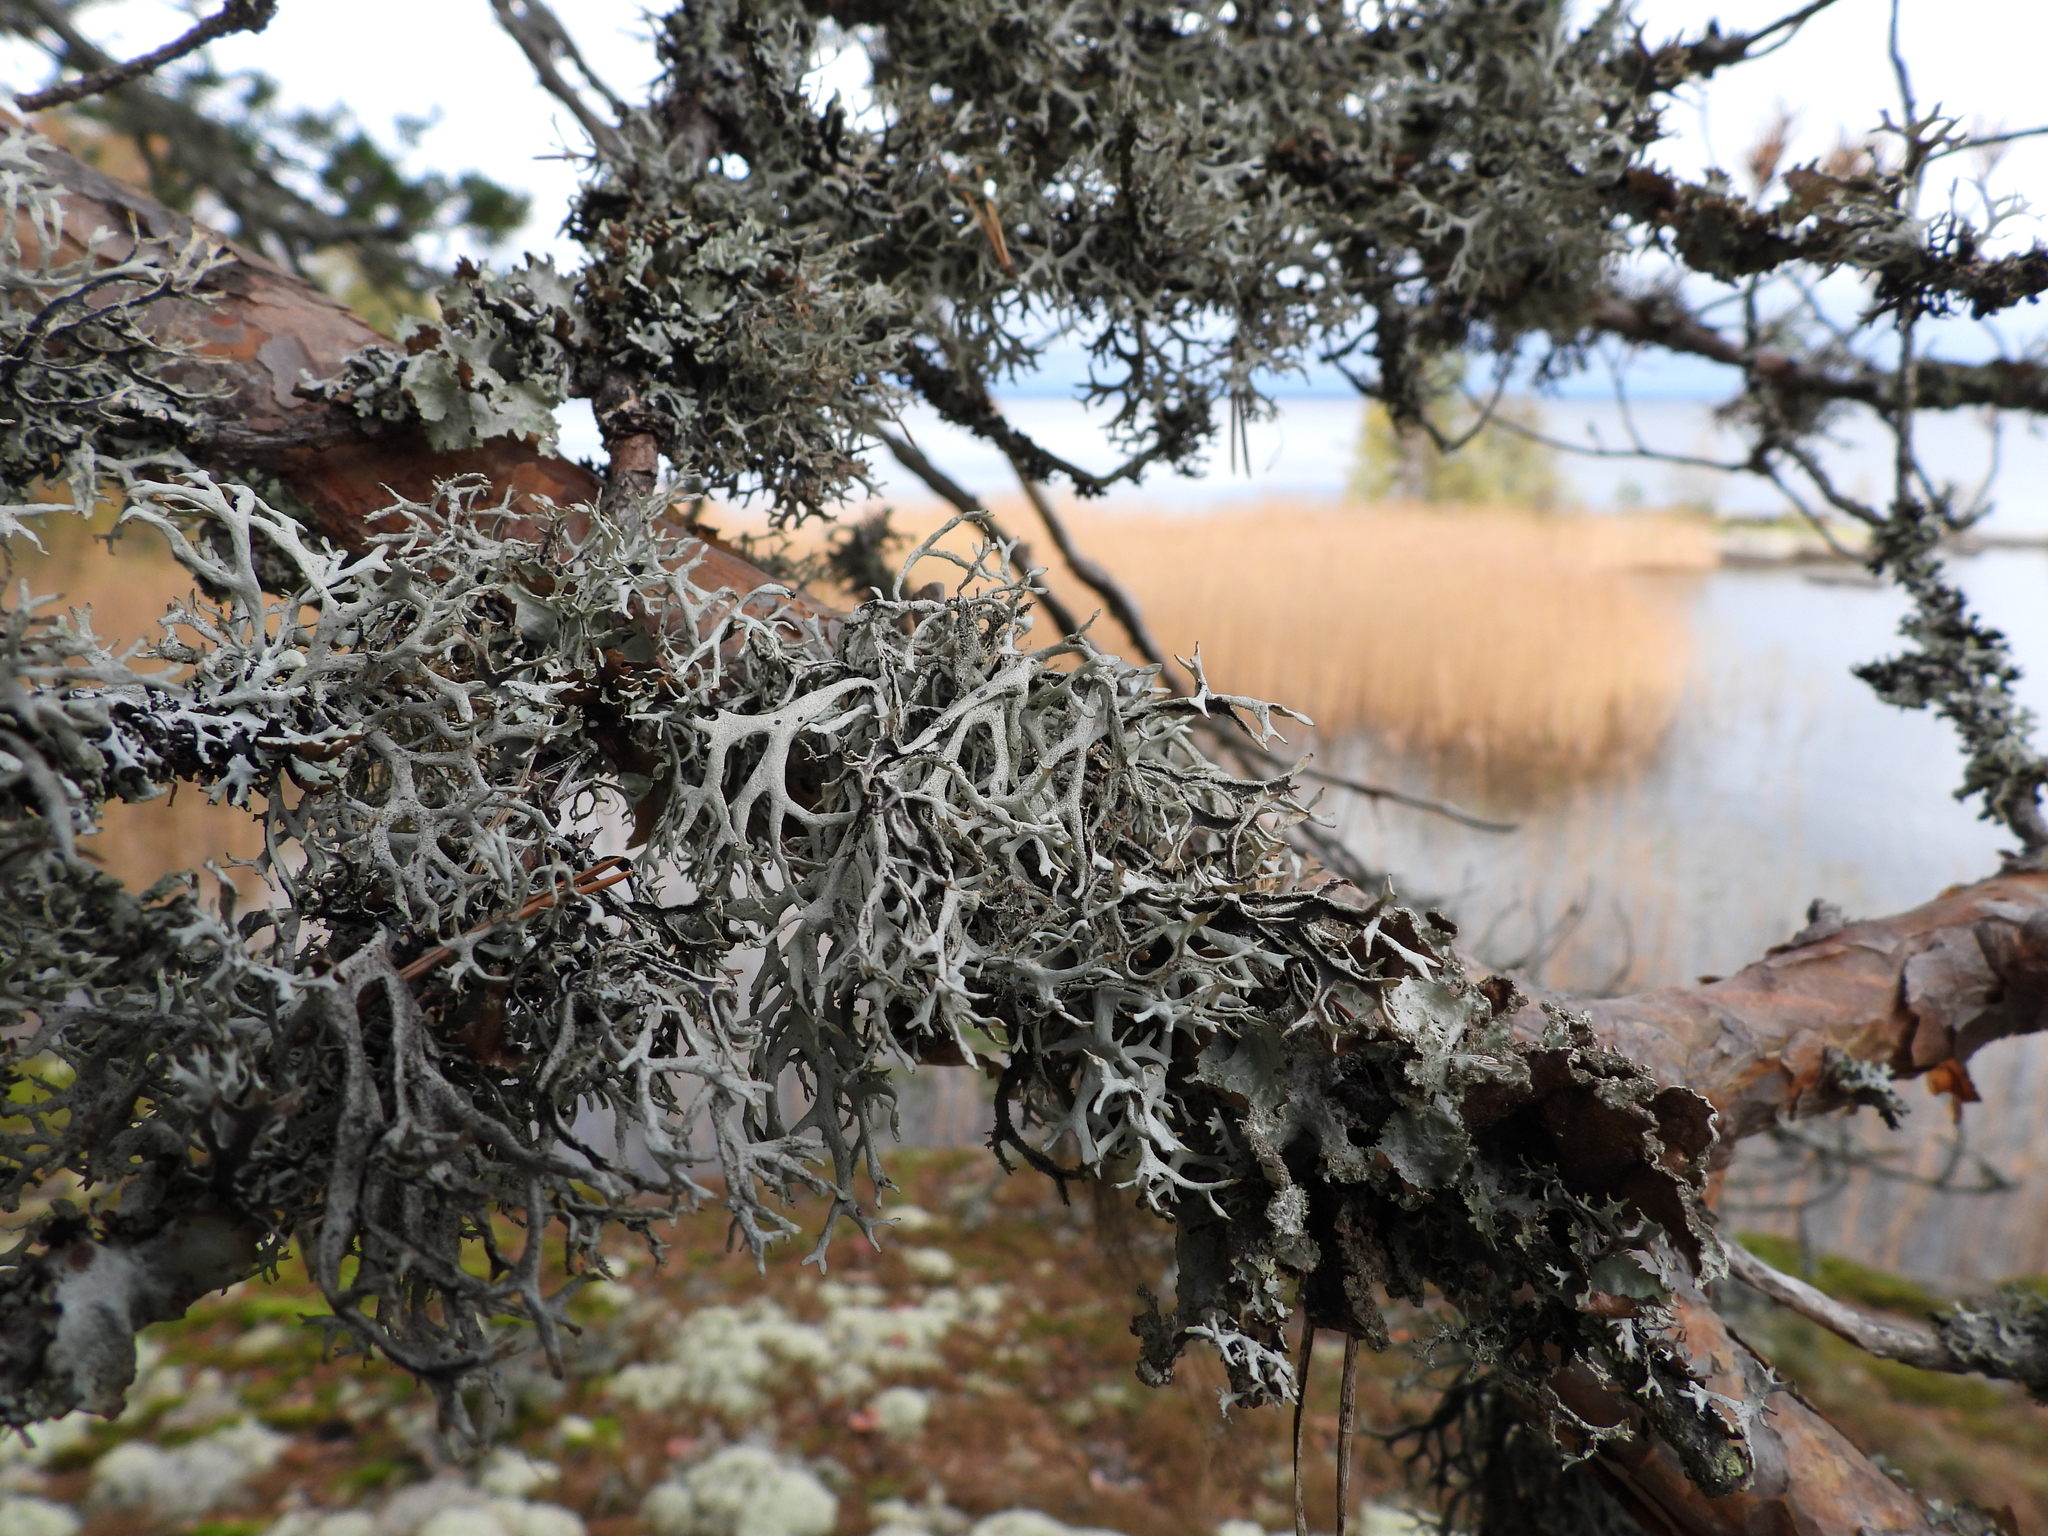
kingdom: Fungi
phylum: Ascomycota
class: Lecanoromycetes
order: Lecanorales
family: Parmeliaceae
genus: Pseudevernia
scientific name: Pseudevernia furfuracea
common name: Tree moss
